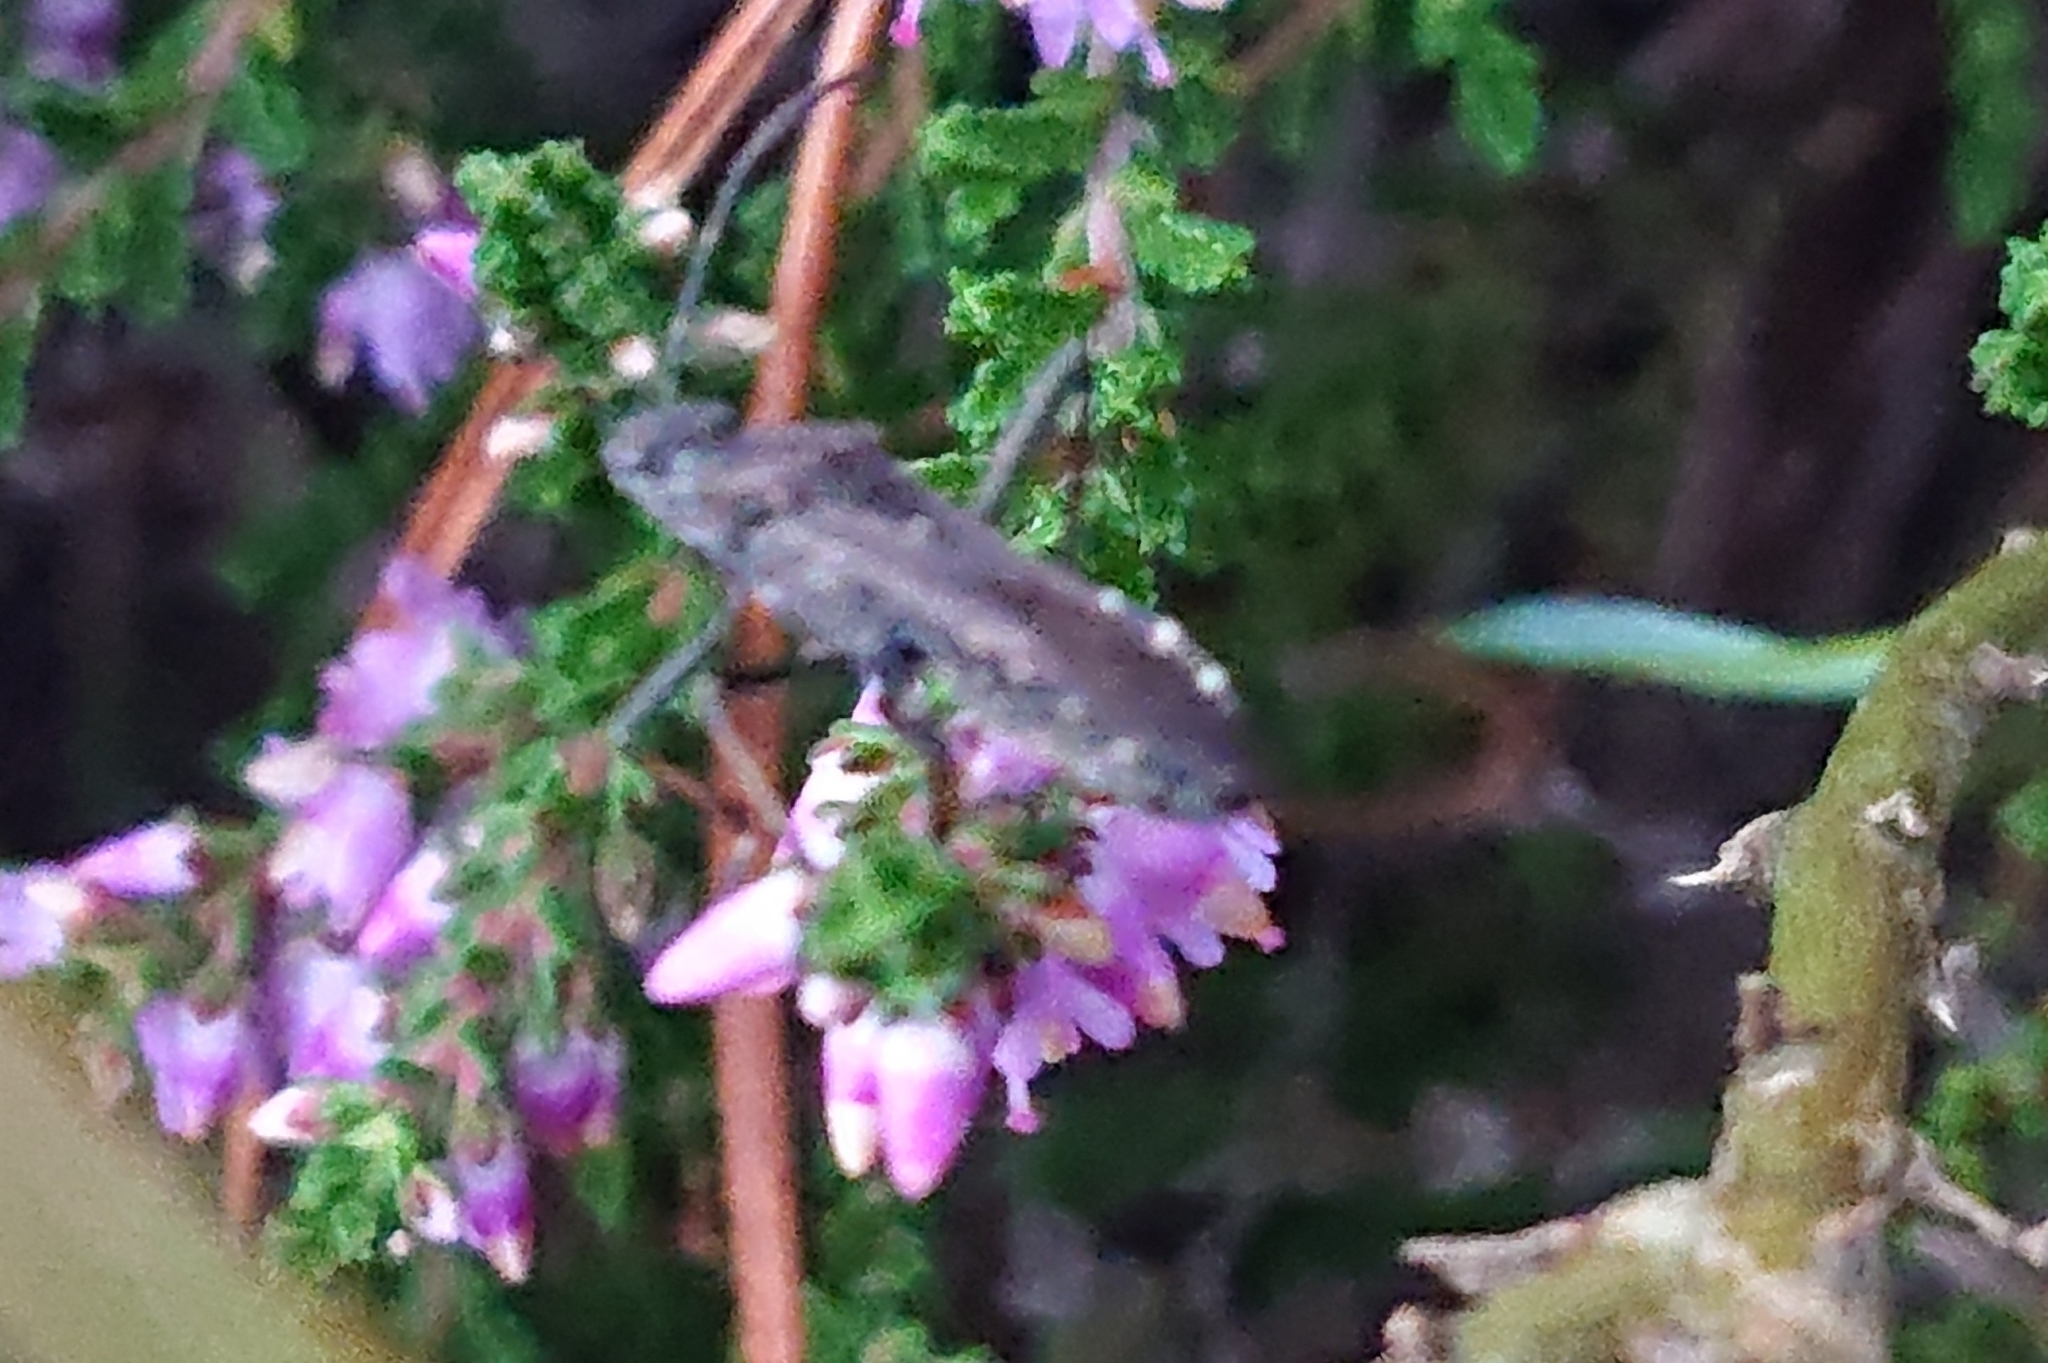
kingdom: Animalia
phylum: Arthropoda
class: Insecta
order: Hemiptera
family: Alydidae
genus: Alydus
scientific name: Alydus calcaratus
